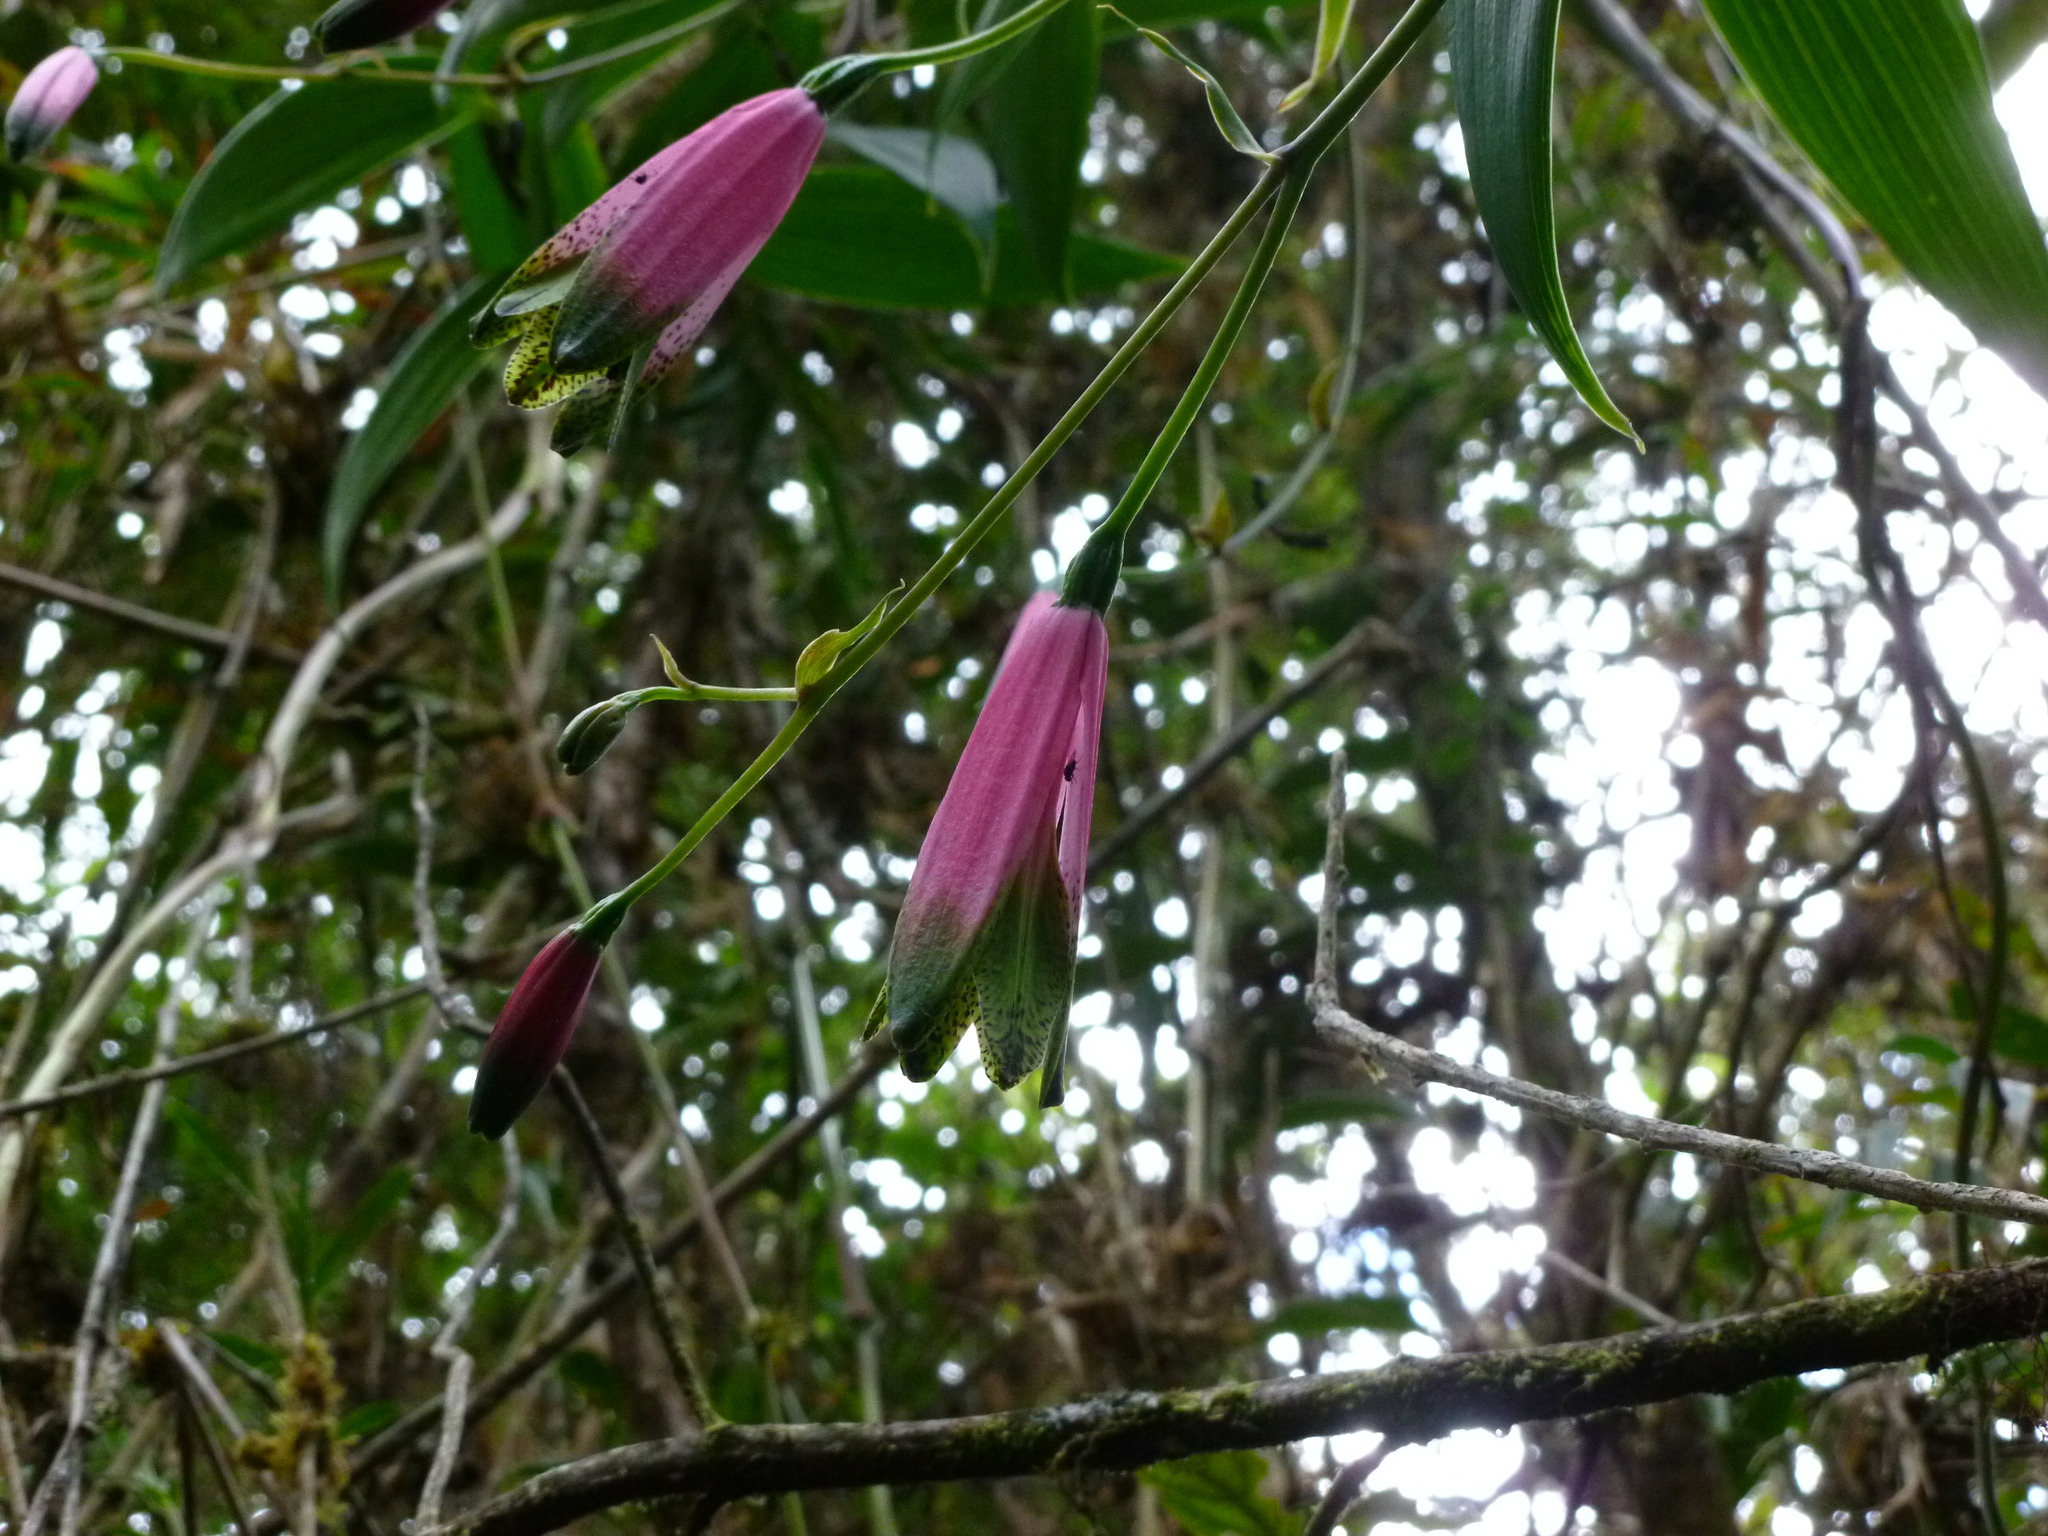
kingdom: Plantae
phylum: Tracheophyta
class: Liliopsida
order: Liliales
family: Alstroemeriaceae
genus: Bomarea
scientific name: Bomarea diffracta
